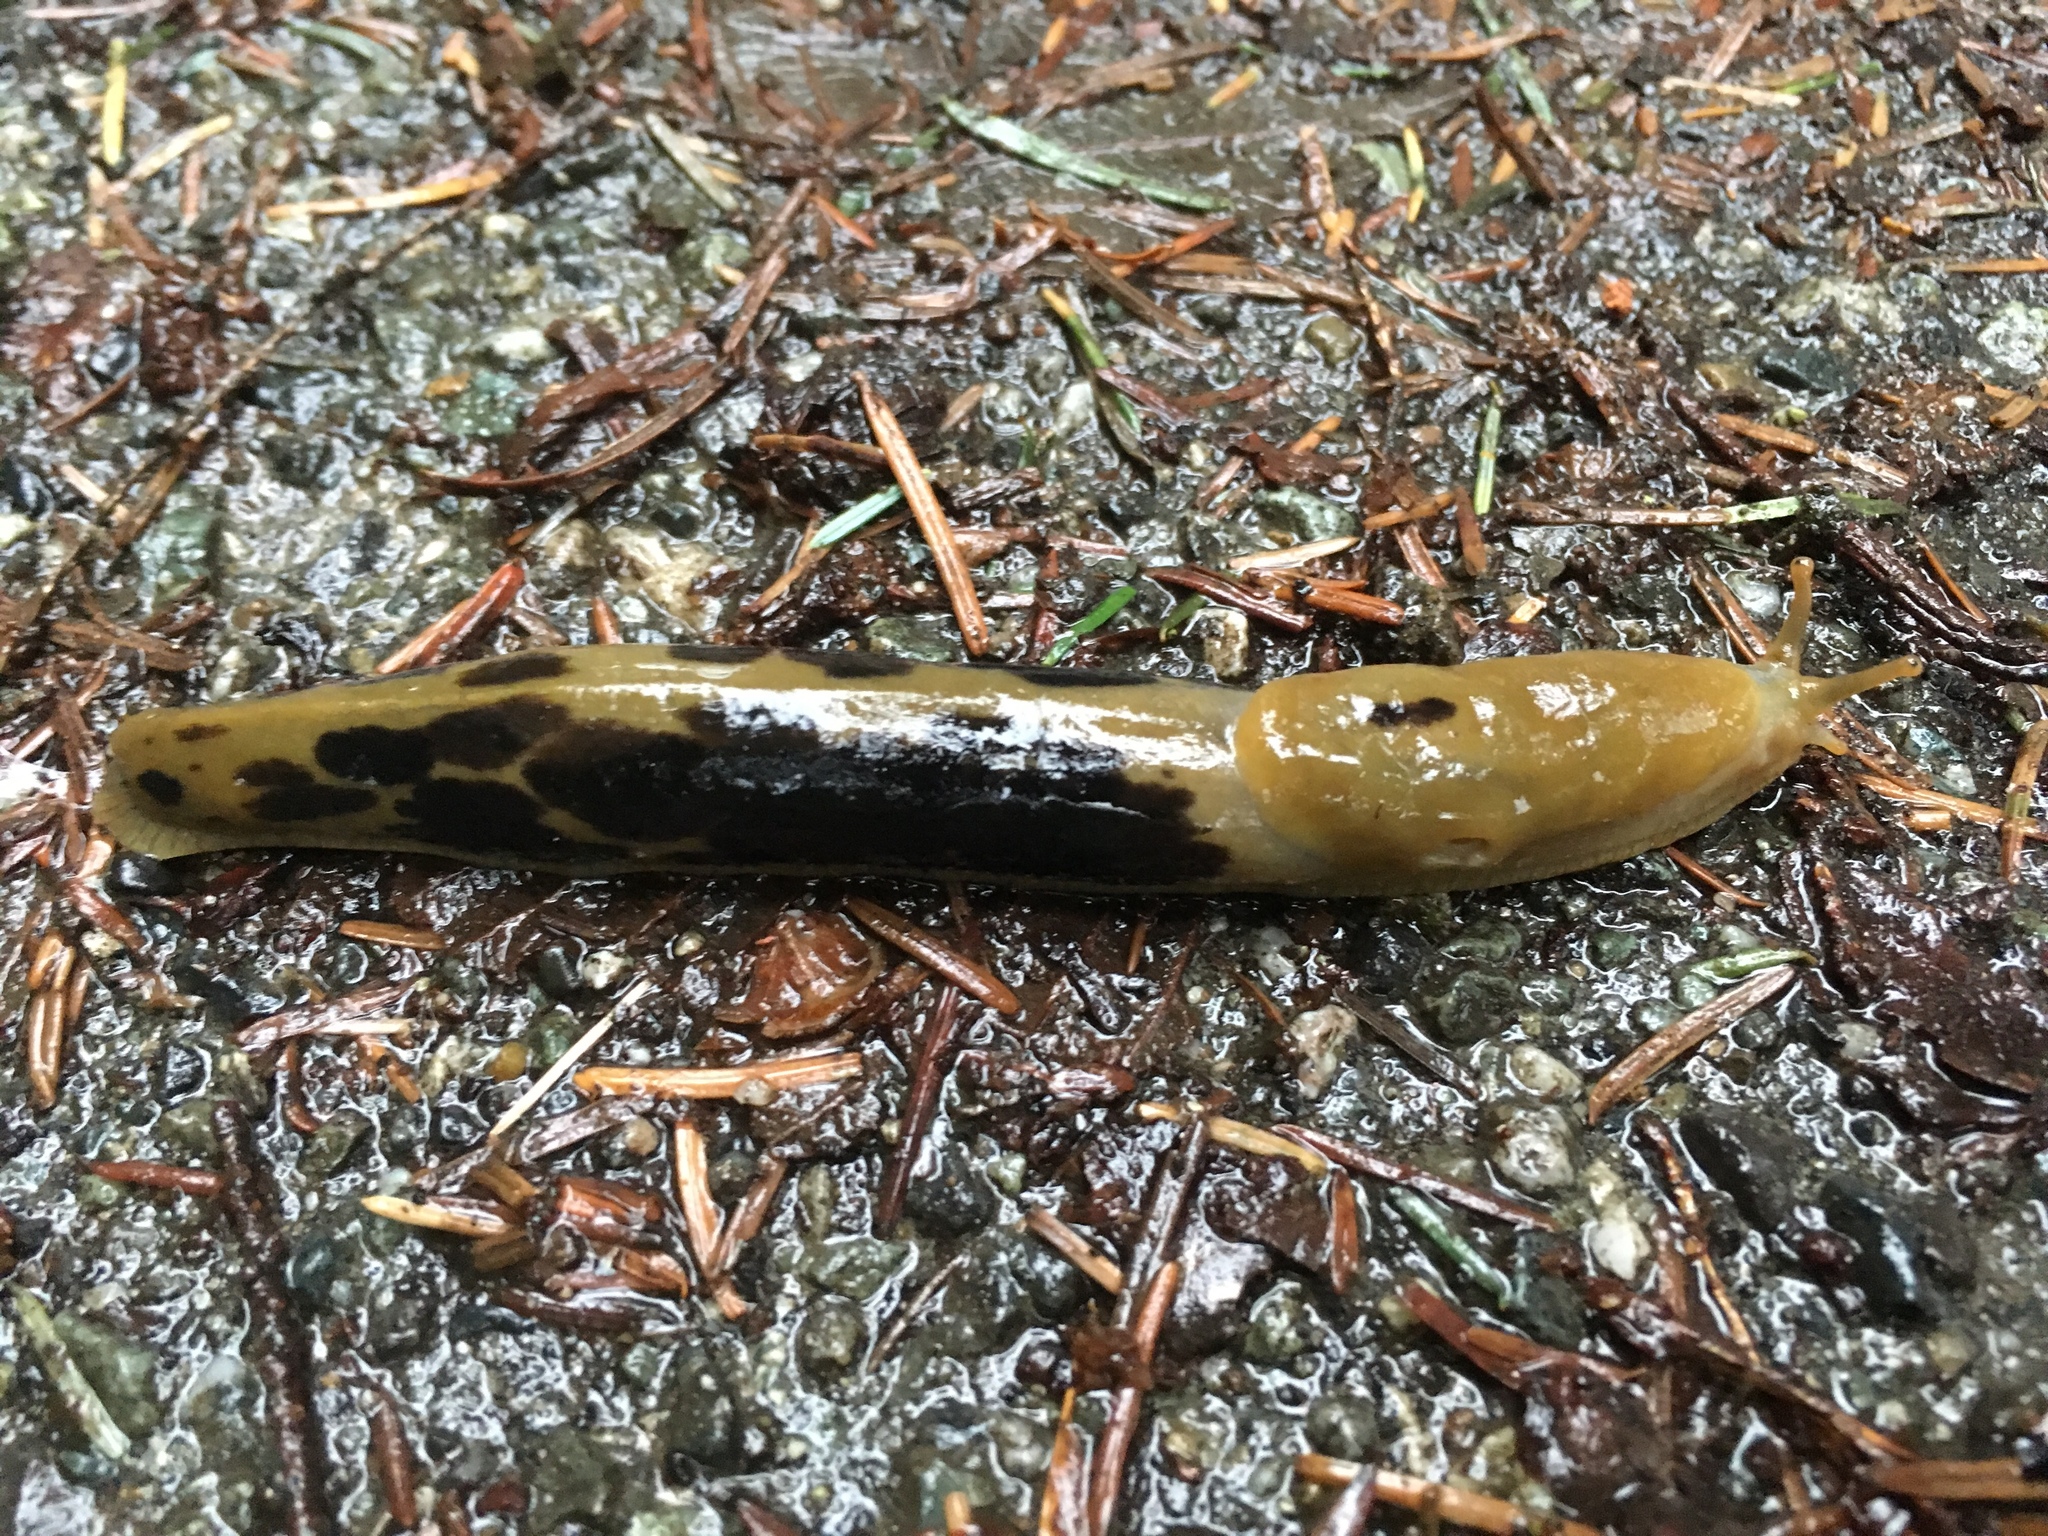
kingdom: Animalia
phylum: Mollusca
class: Gastropoda
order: Stylommatophora
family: Ariolimacidae
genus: Ariolimax
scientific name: Ariolimax columbianus
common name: Pacific banana slug
